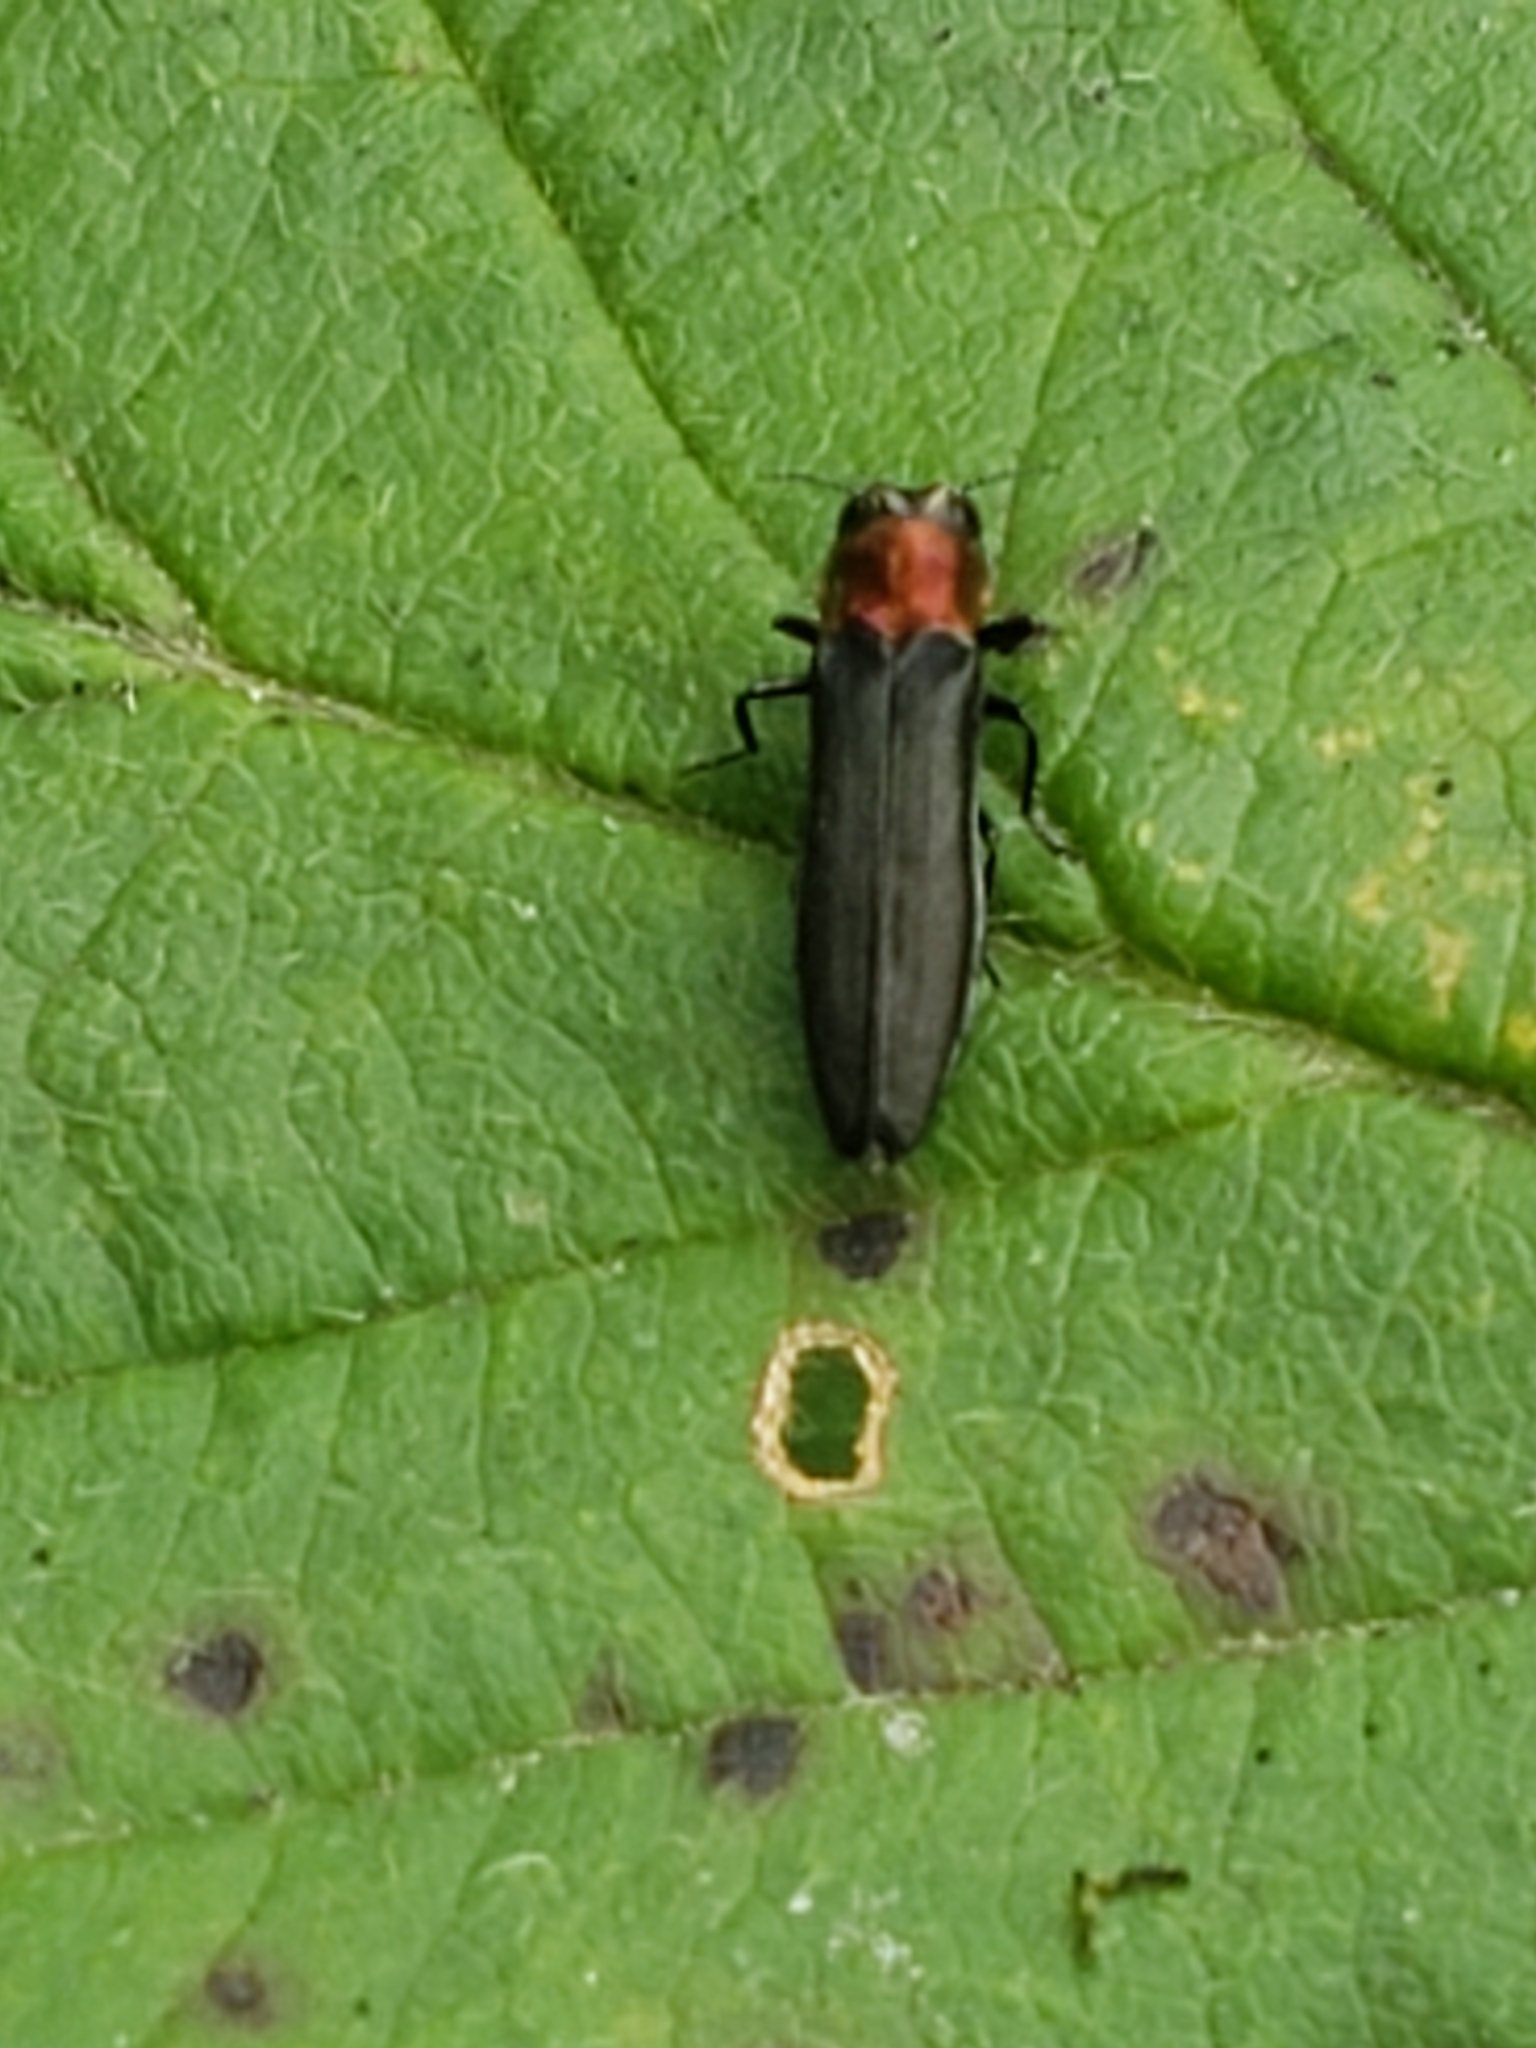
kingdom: Animalia
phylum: Arthropoda
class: Insecta
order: Coleoptera
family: Buprestidae
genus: Agrilus
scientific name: Agrilus ruficollis
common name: Red-necked cane borer beetle
